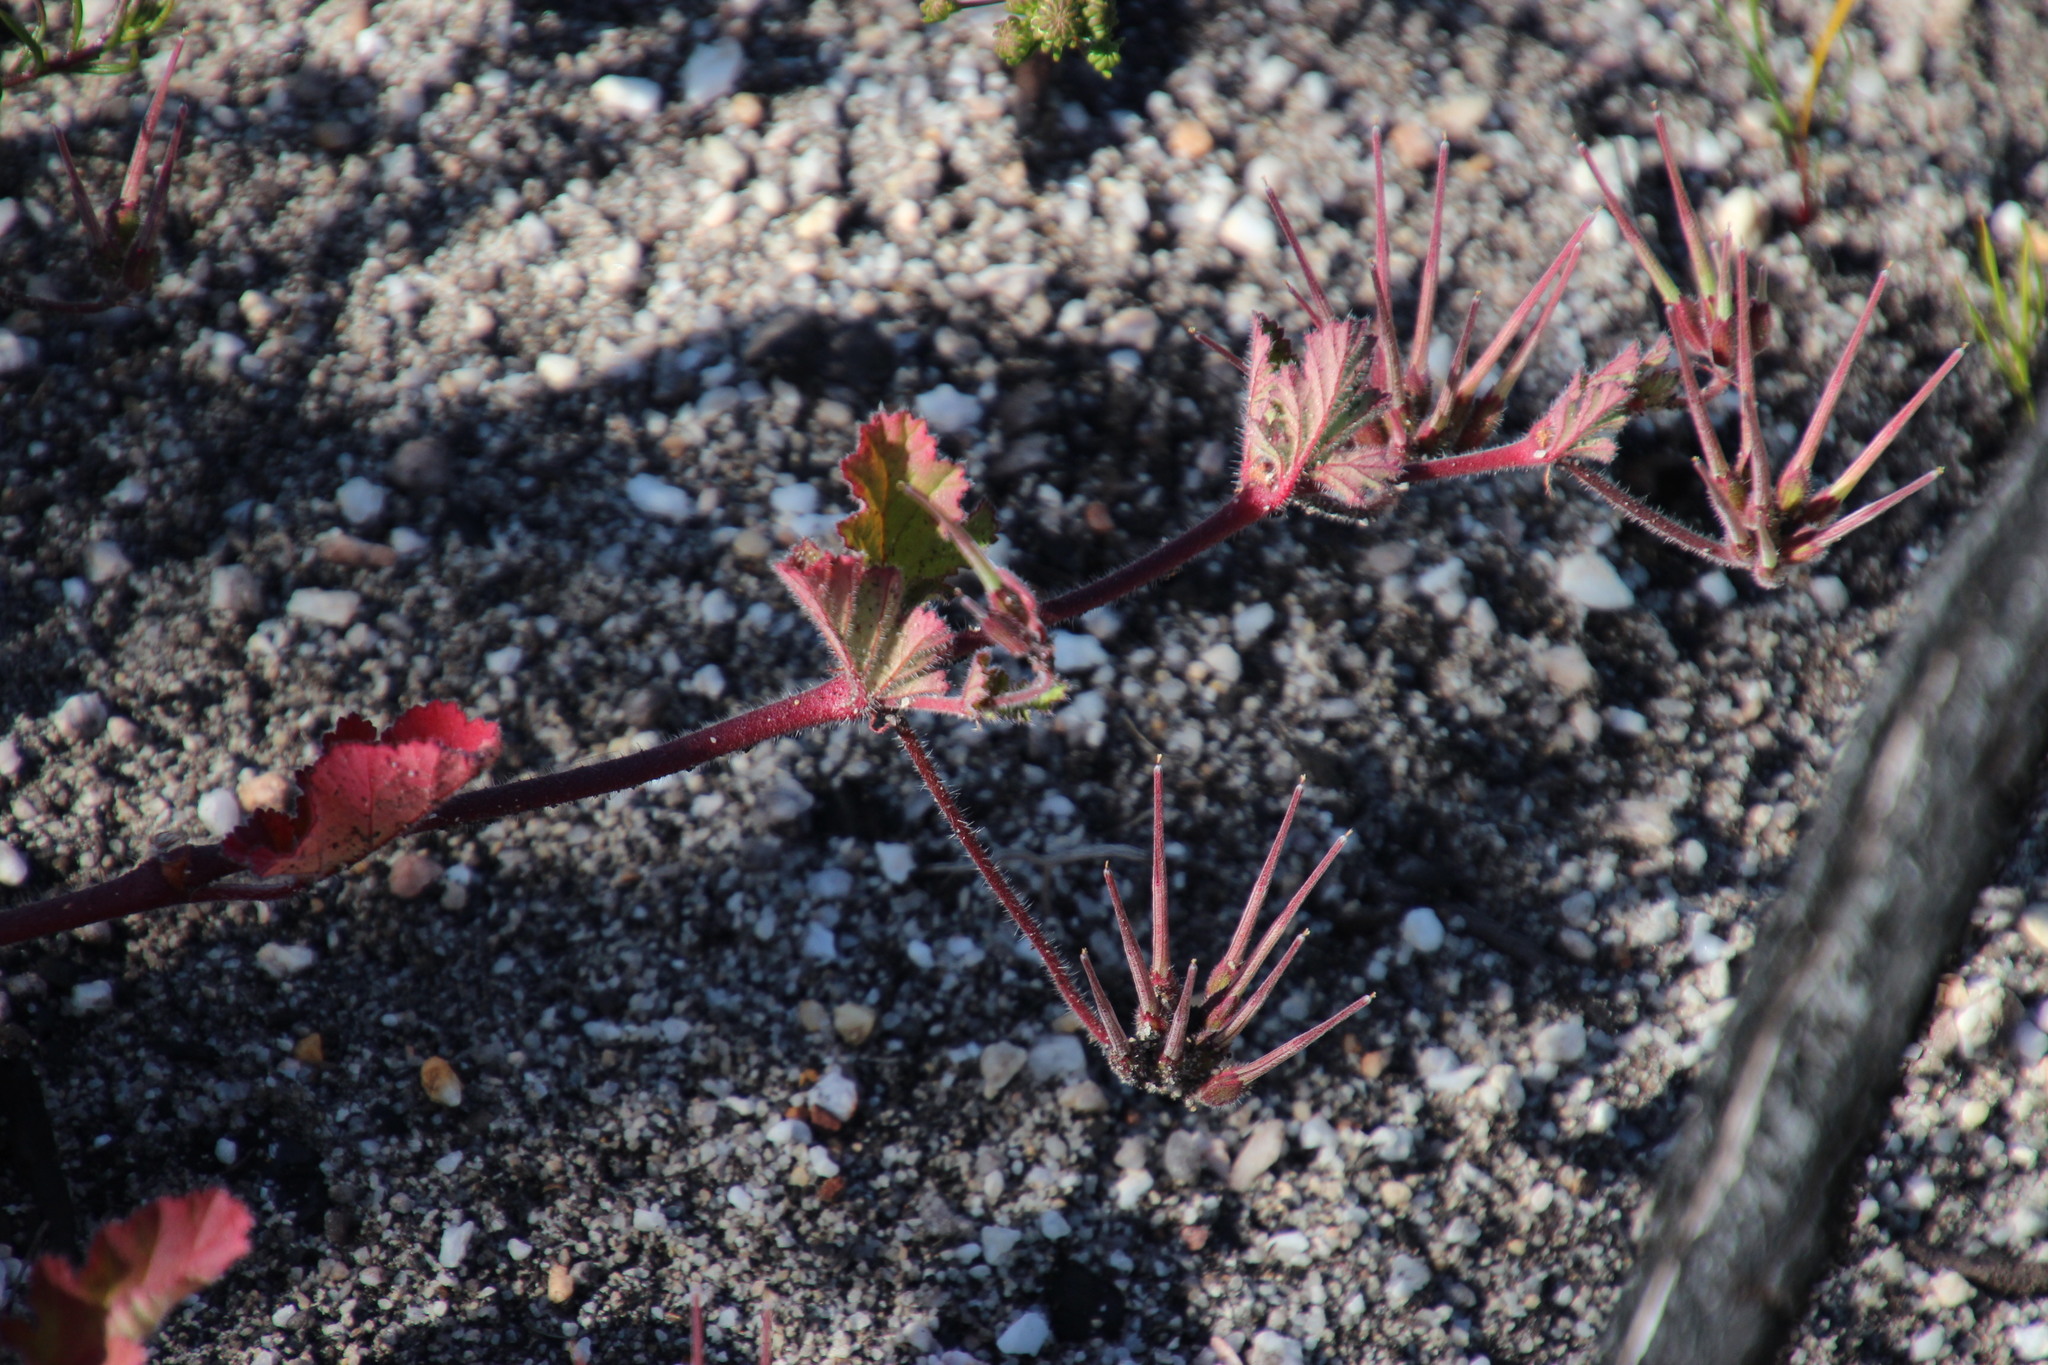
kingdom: Plantae
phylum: Tracheophyta
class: Magnoliopsida
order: Geraniales
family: Geraniaceae
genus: Pelargonium
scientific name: Pelargonium althaeoides
